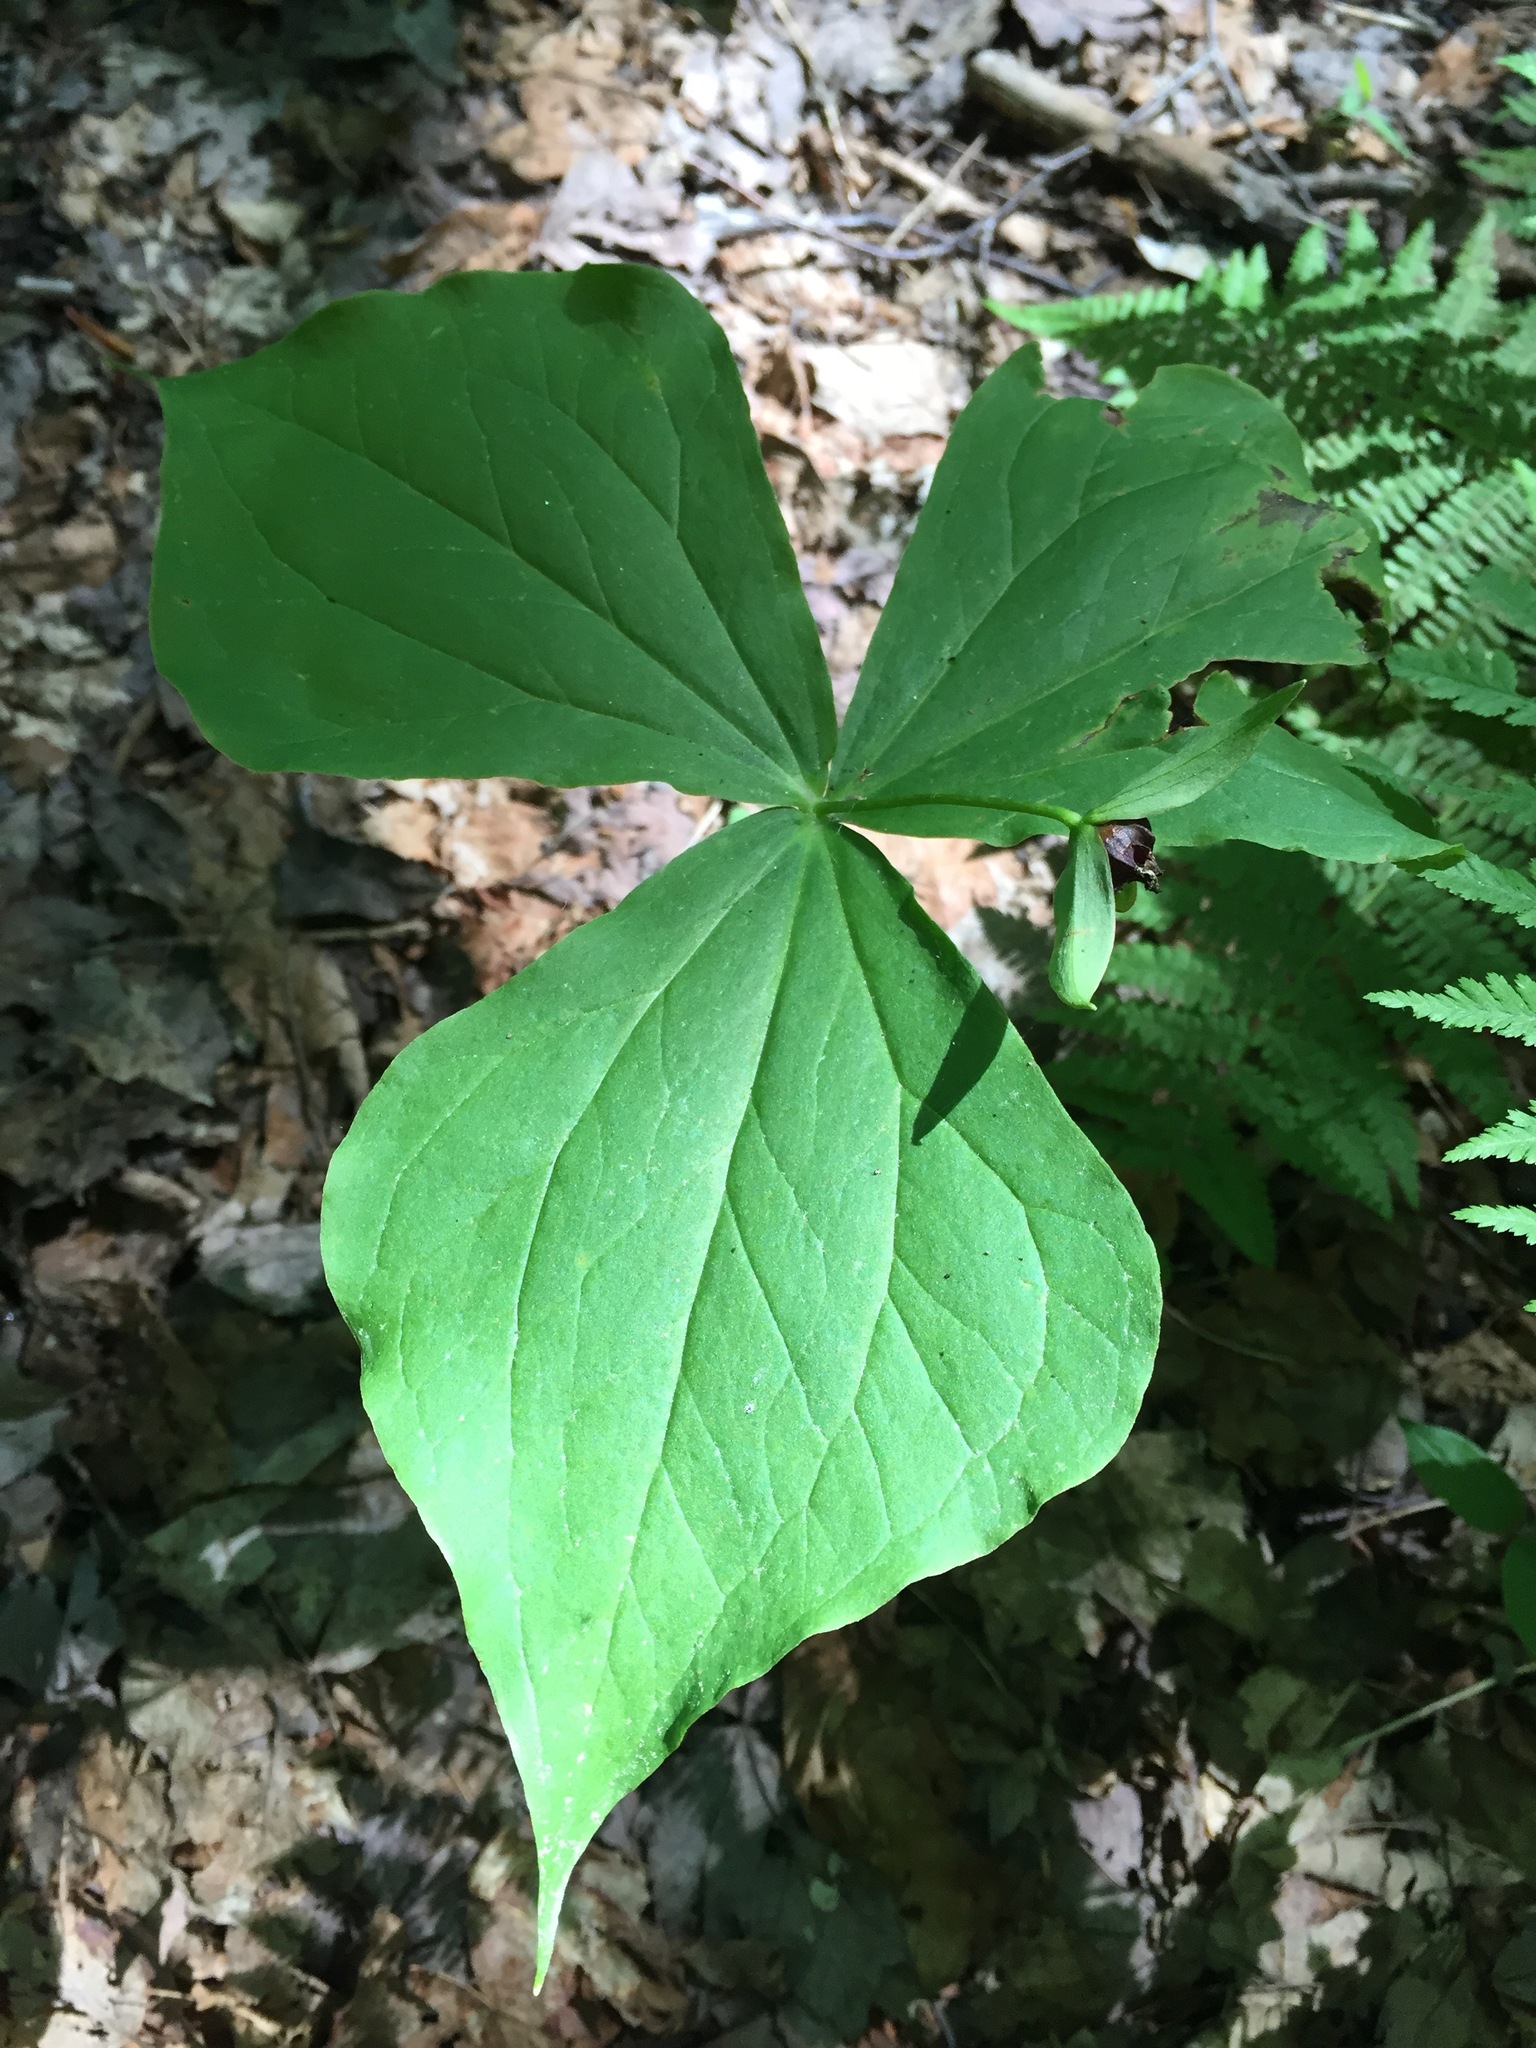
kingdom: Plantae
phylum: Tracheophyta
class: Liliopsida
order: Liliales
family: Melanthiaceae
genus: Trillium
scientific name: Trillium erectum
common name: Purple trillium
